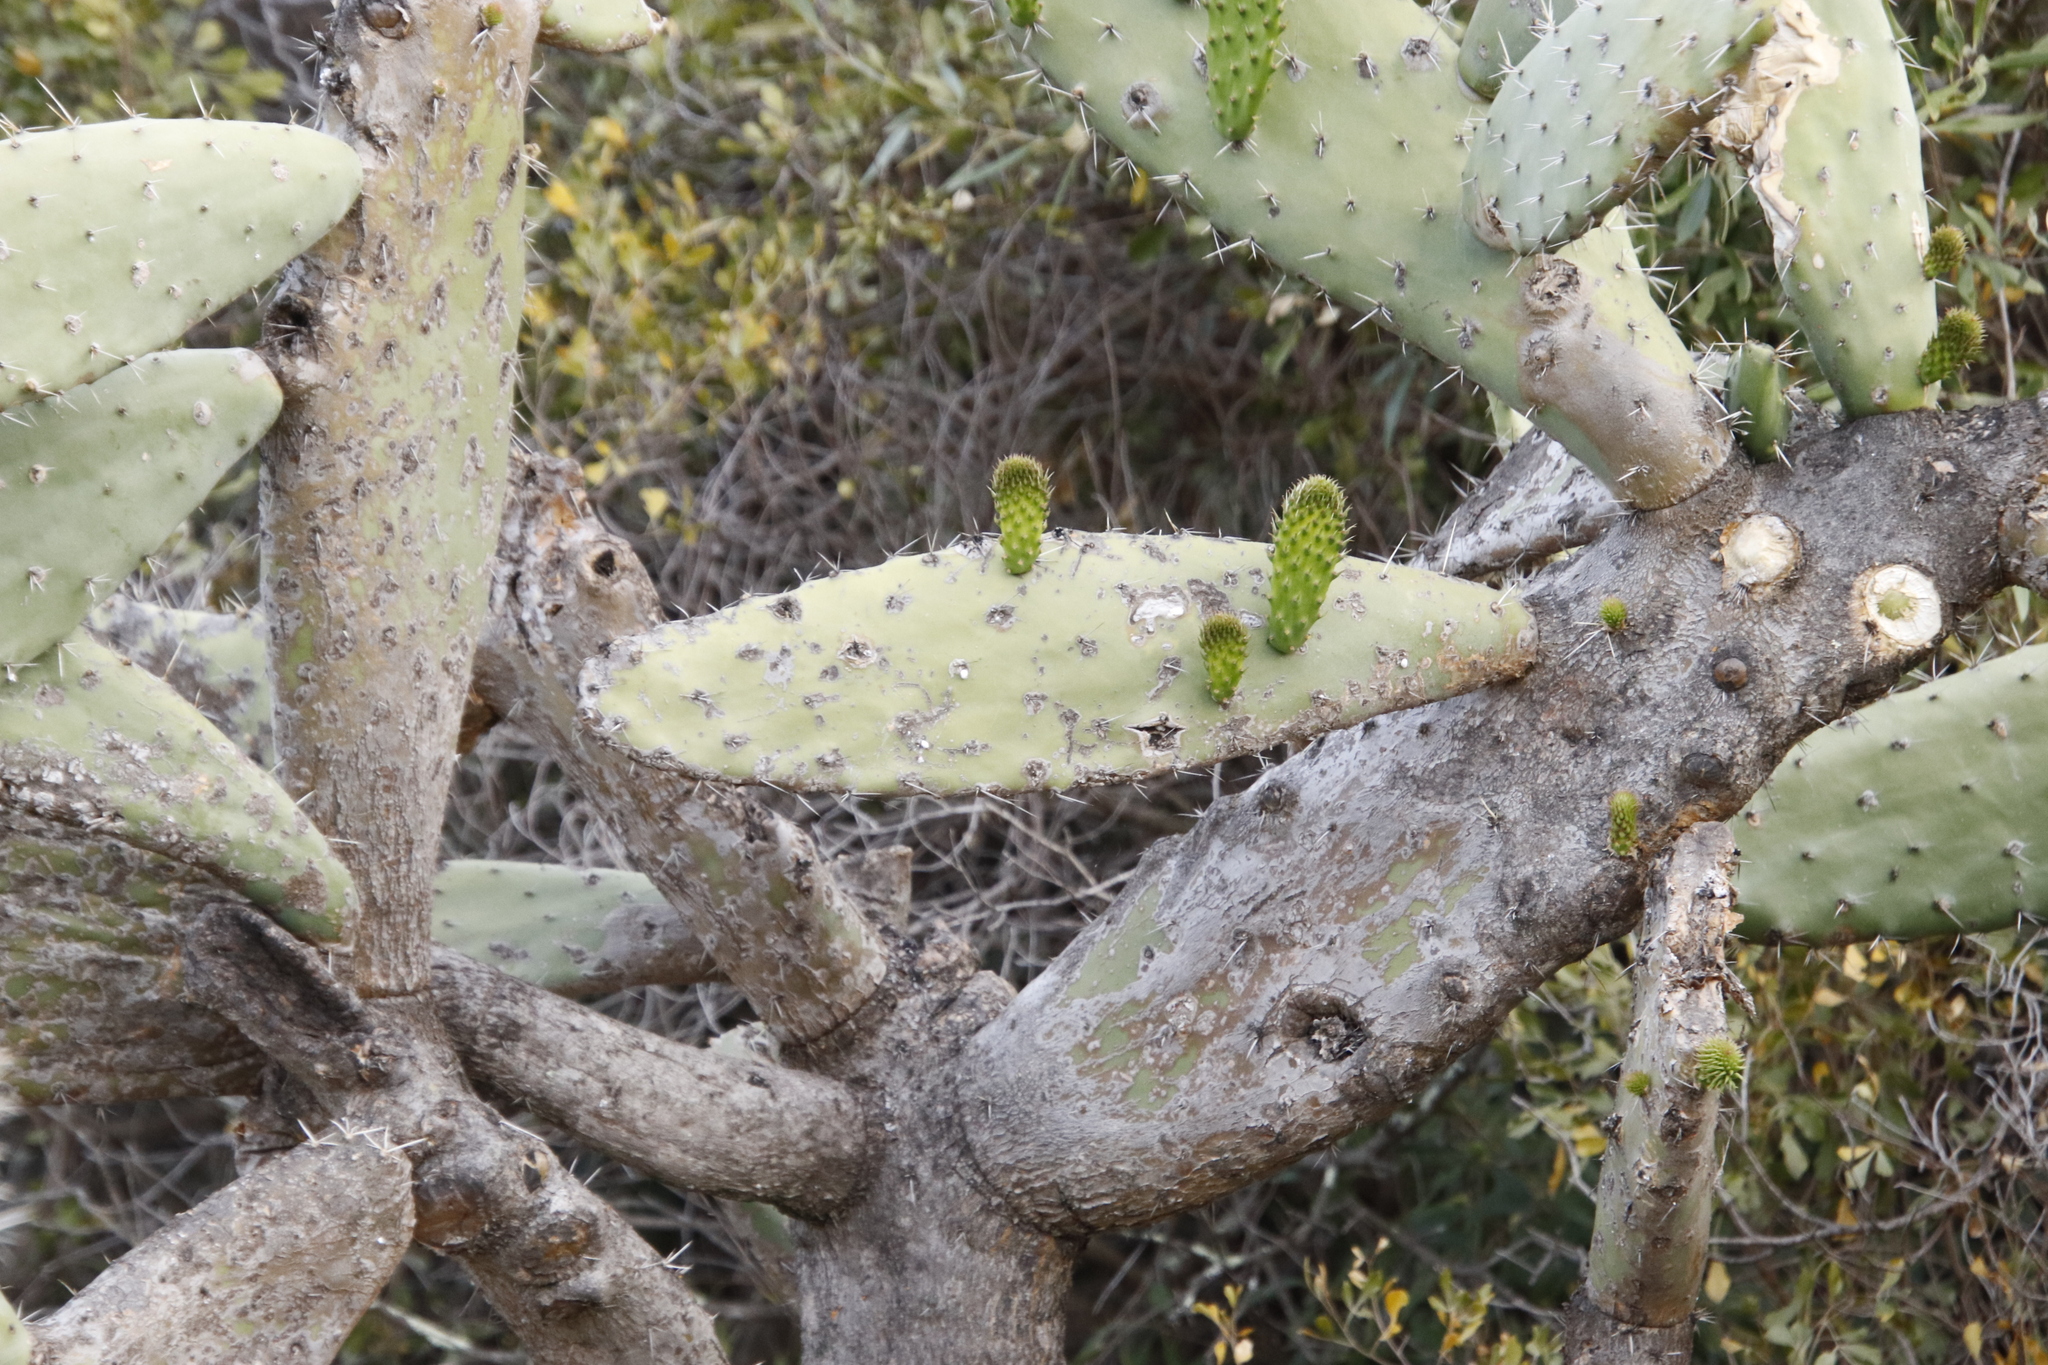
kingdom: Plantae
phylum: Tracheophyta
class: Magnoliopsida
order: Caryophyllales
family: Cactaceae
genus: Opuntia
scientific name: Opuntia ficus-indica
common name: Barbary fig
